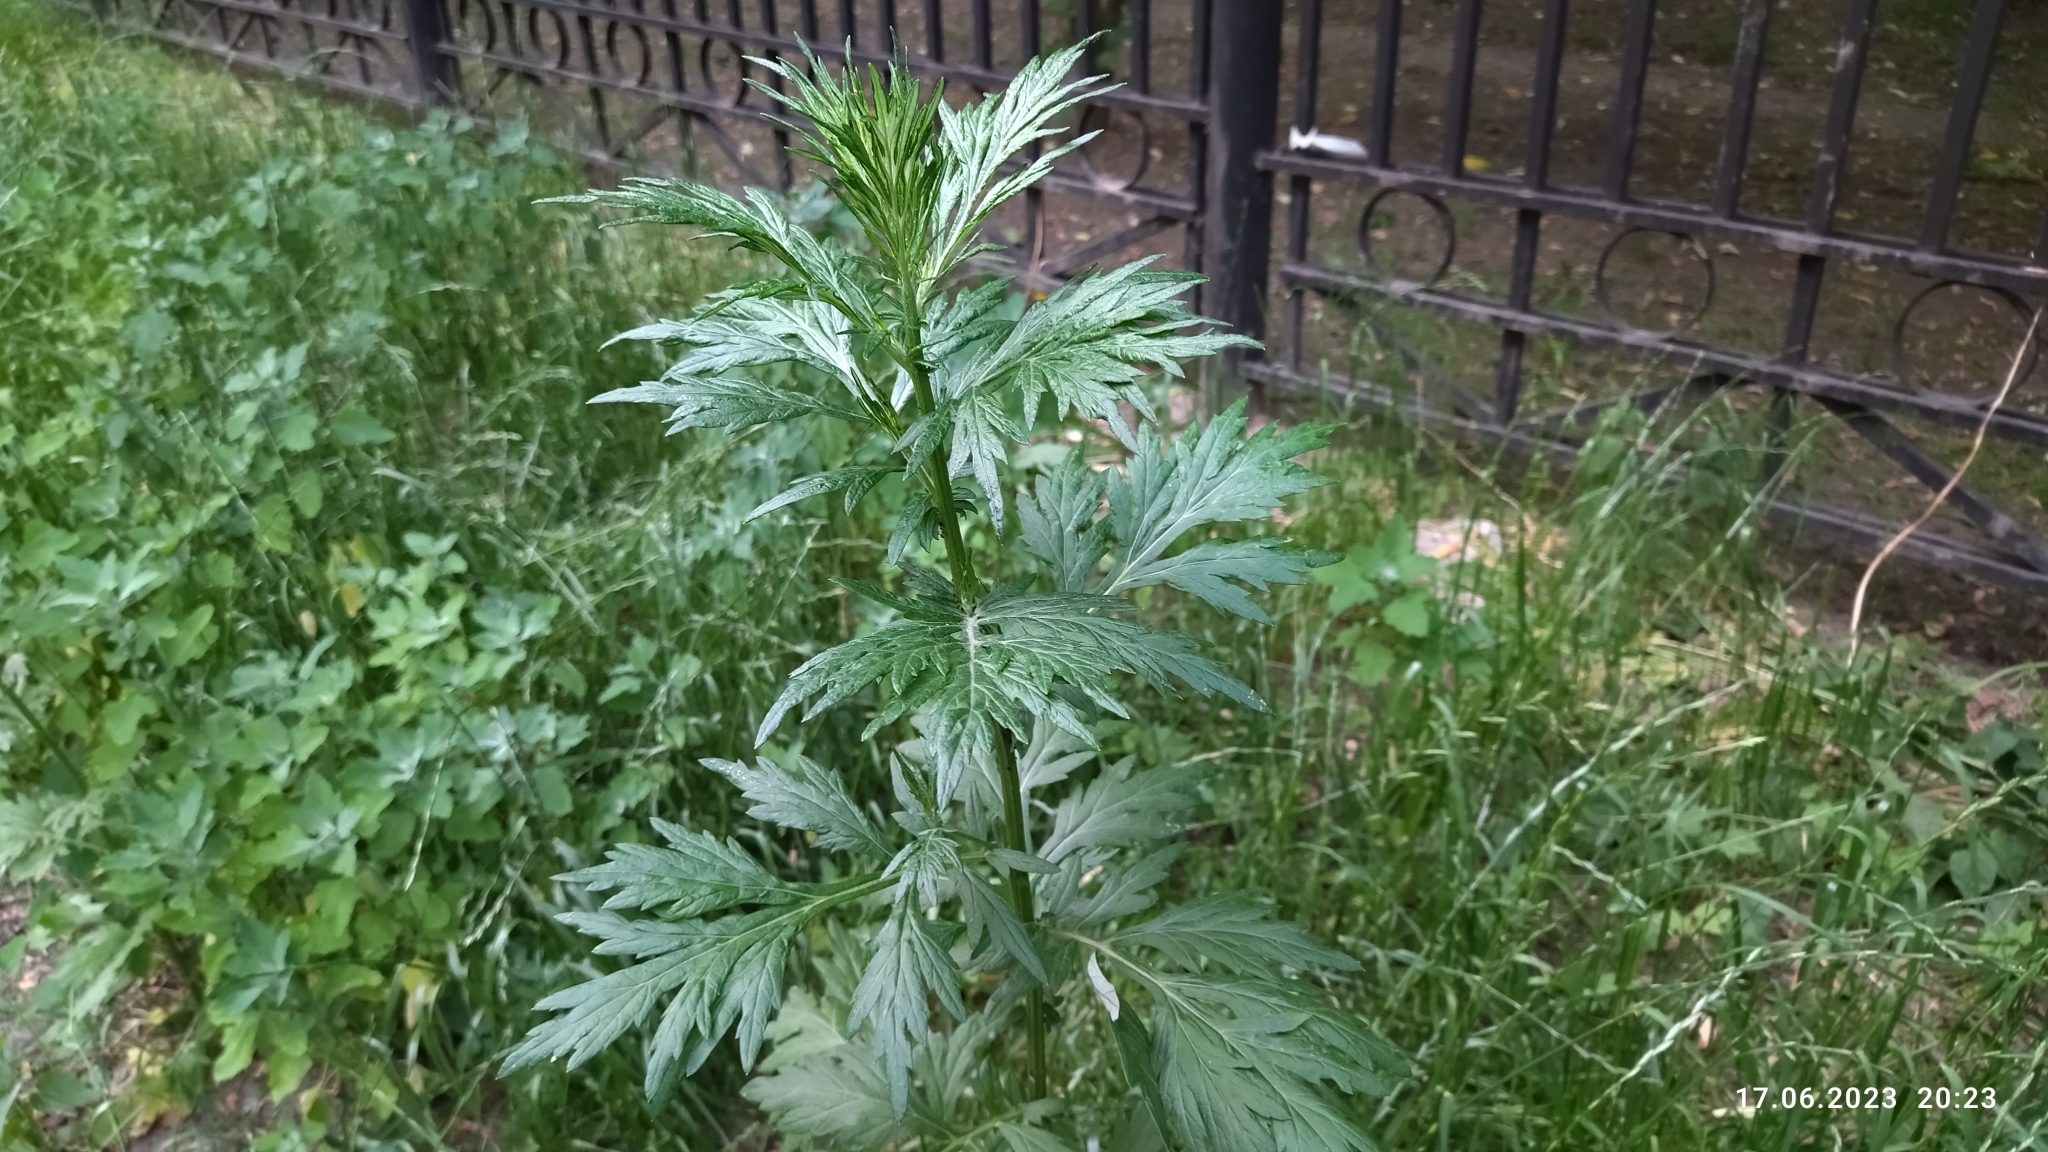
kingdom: Plantae
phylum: Tracheophyta
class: Magnoliopsida
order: Asterales
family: Asteraceae
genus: Artemisia
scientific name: Artemisia vulgaris
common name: Mugwort
